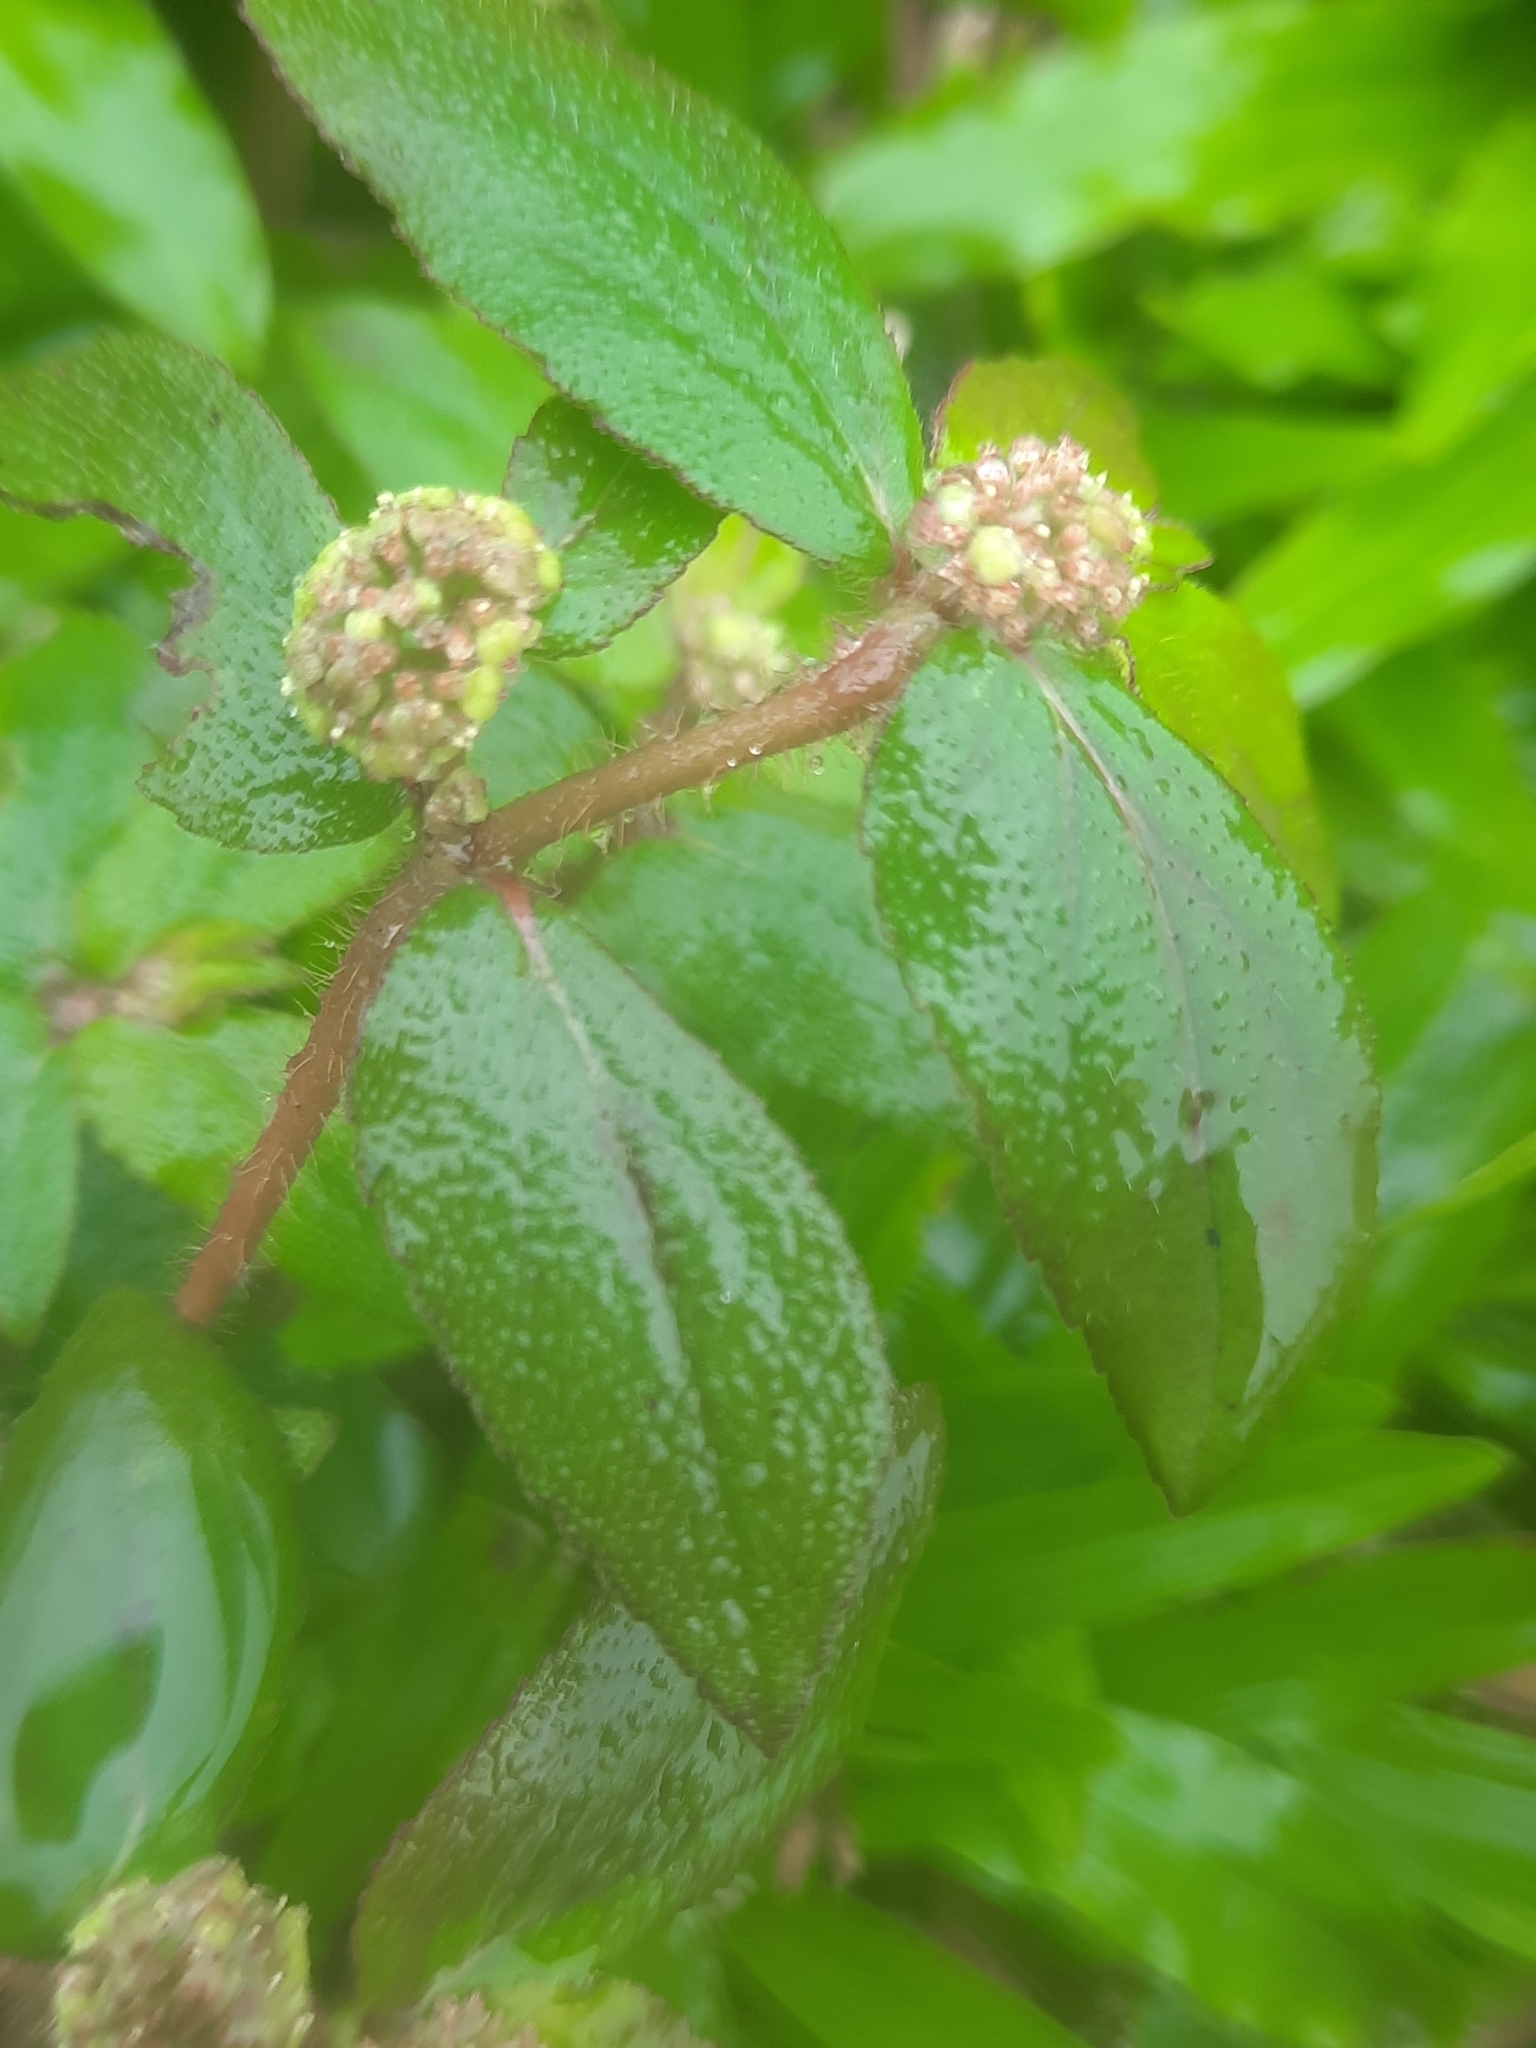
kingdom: Plantae
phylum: Tracheophyta
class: Magnoliopsida
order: Malpighiales
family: Euphorbiaceae
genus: Euphorbia
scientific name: Euphorbia hirta
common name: Pillpod sandmat
